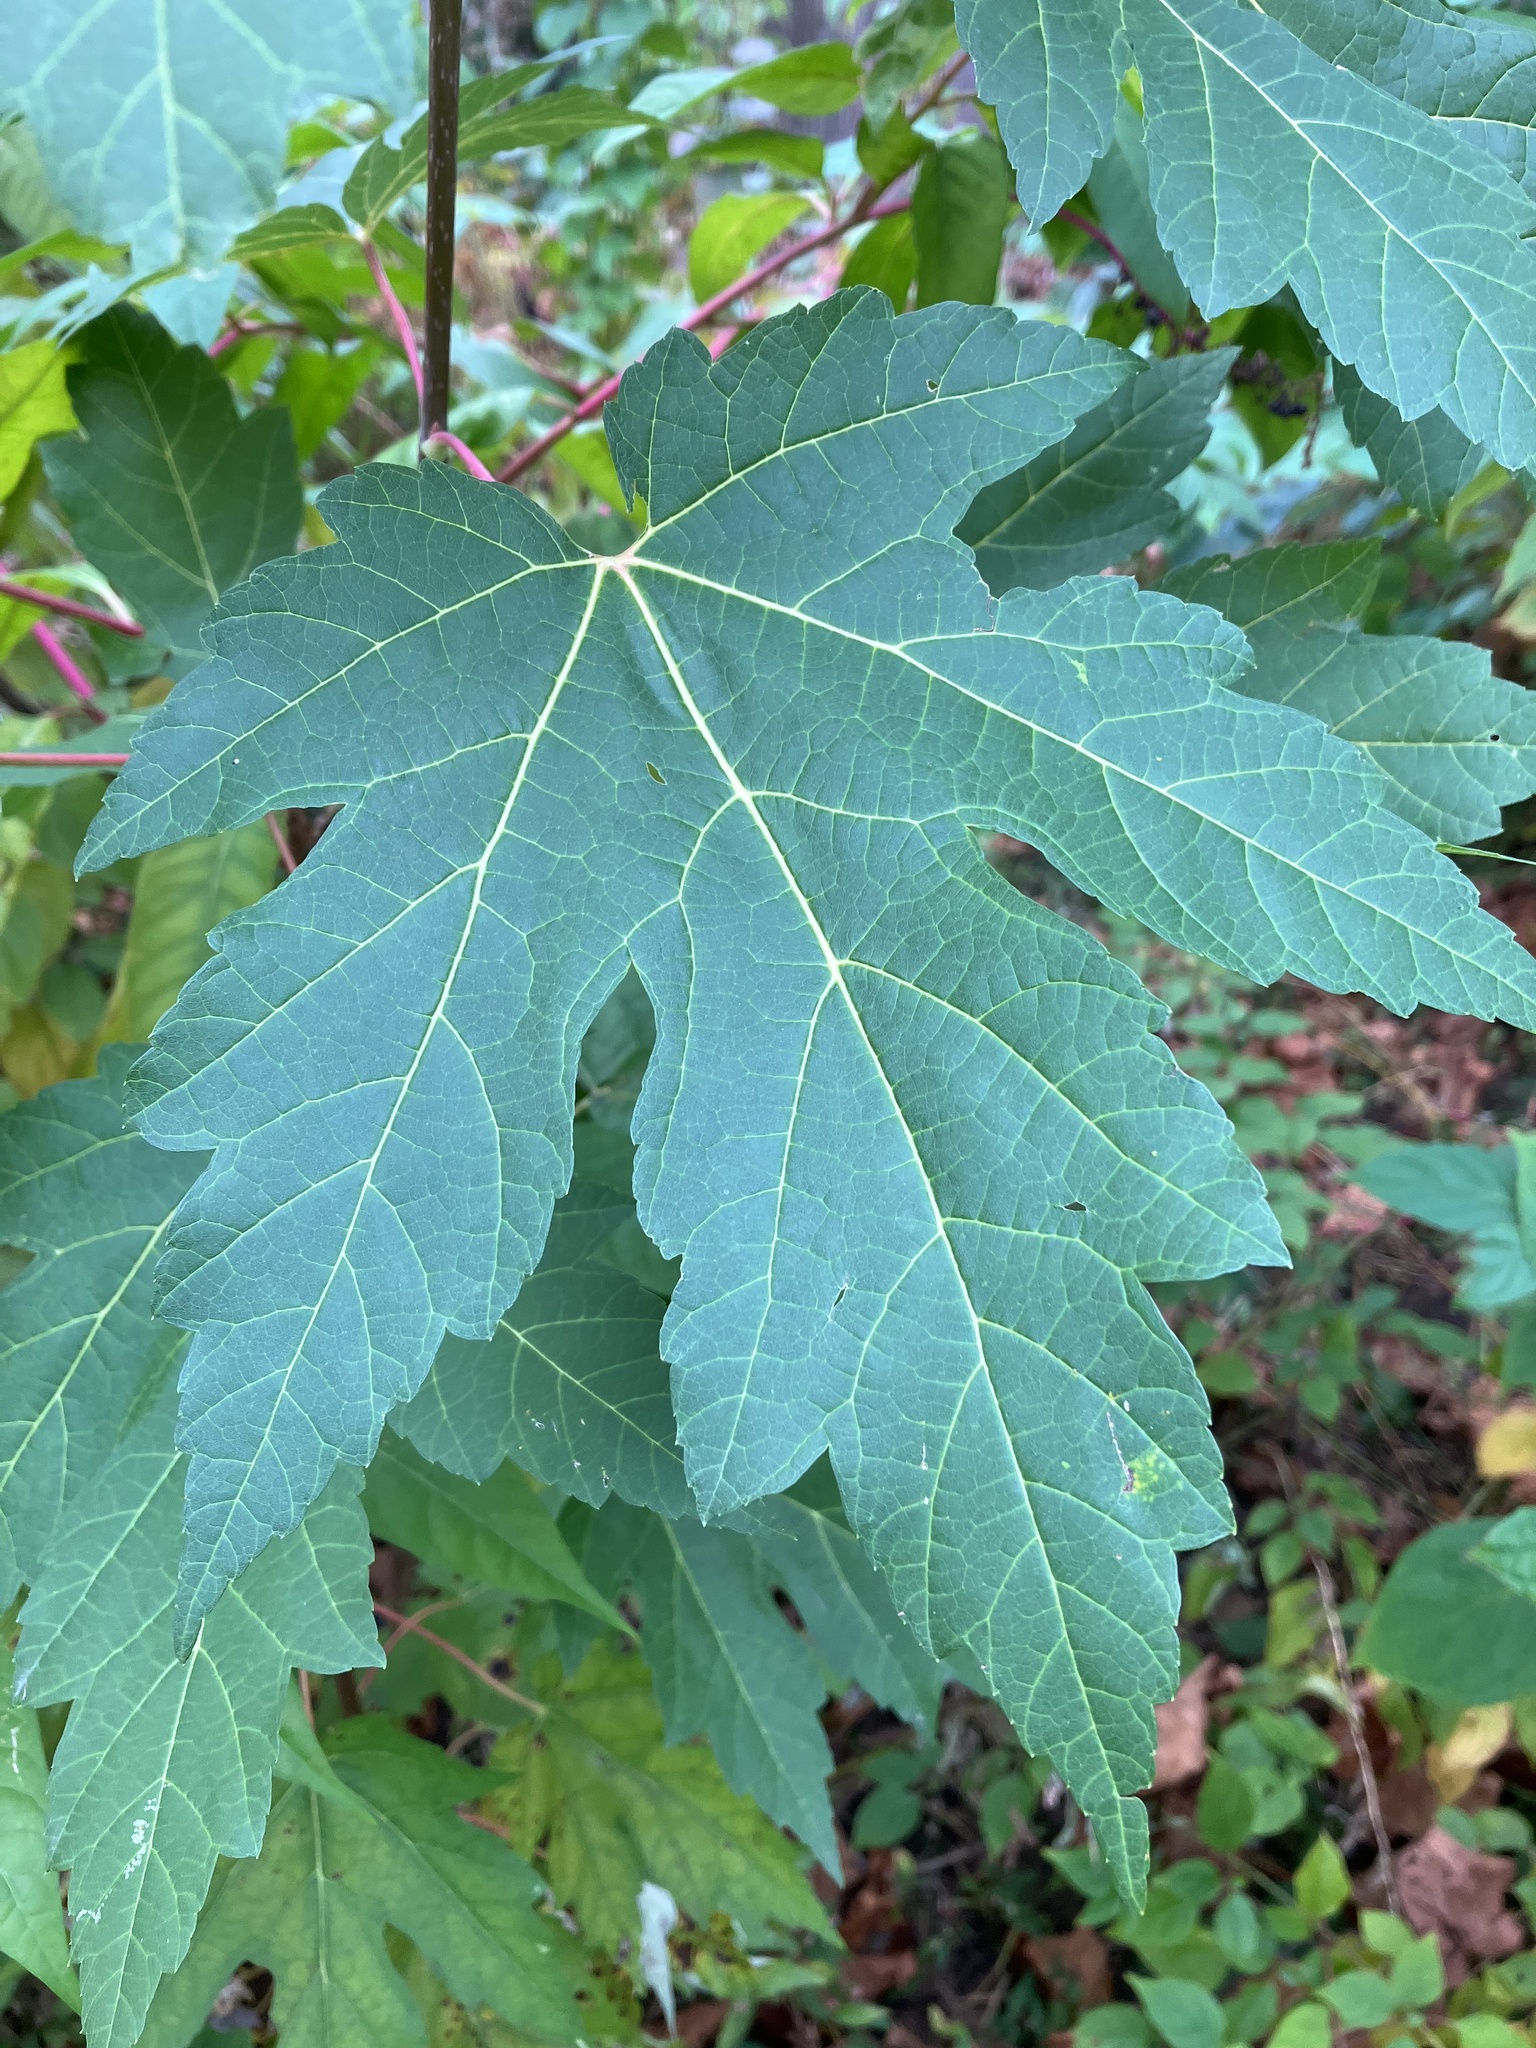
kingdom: Plantae
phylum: Tracheophyta
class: Magnoliopsida
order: Sapindales
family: Sapindaceae
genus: Acer
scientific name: Acer saccharinum
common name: Silver maple
